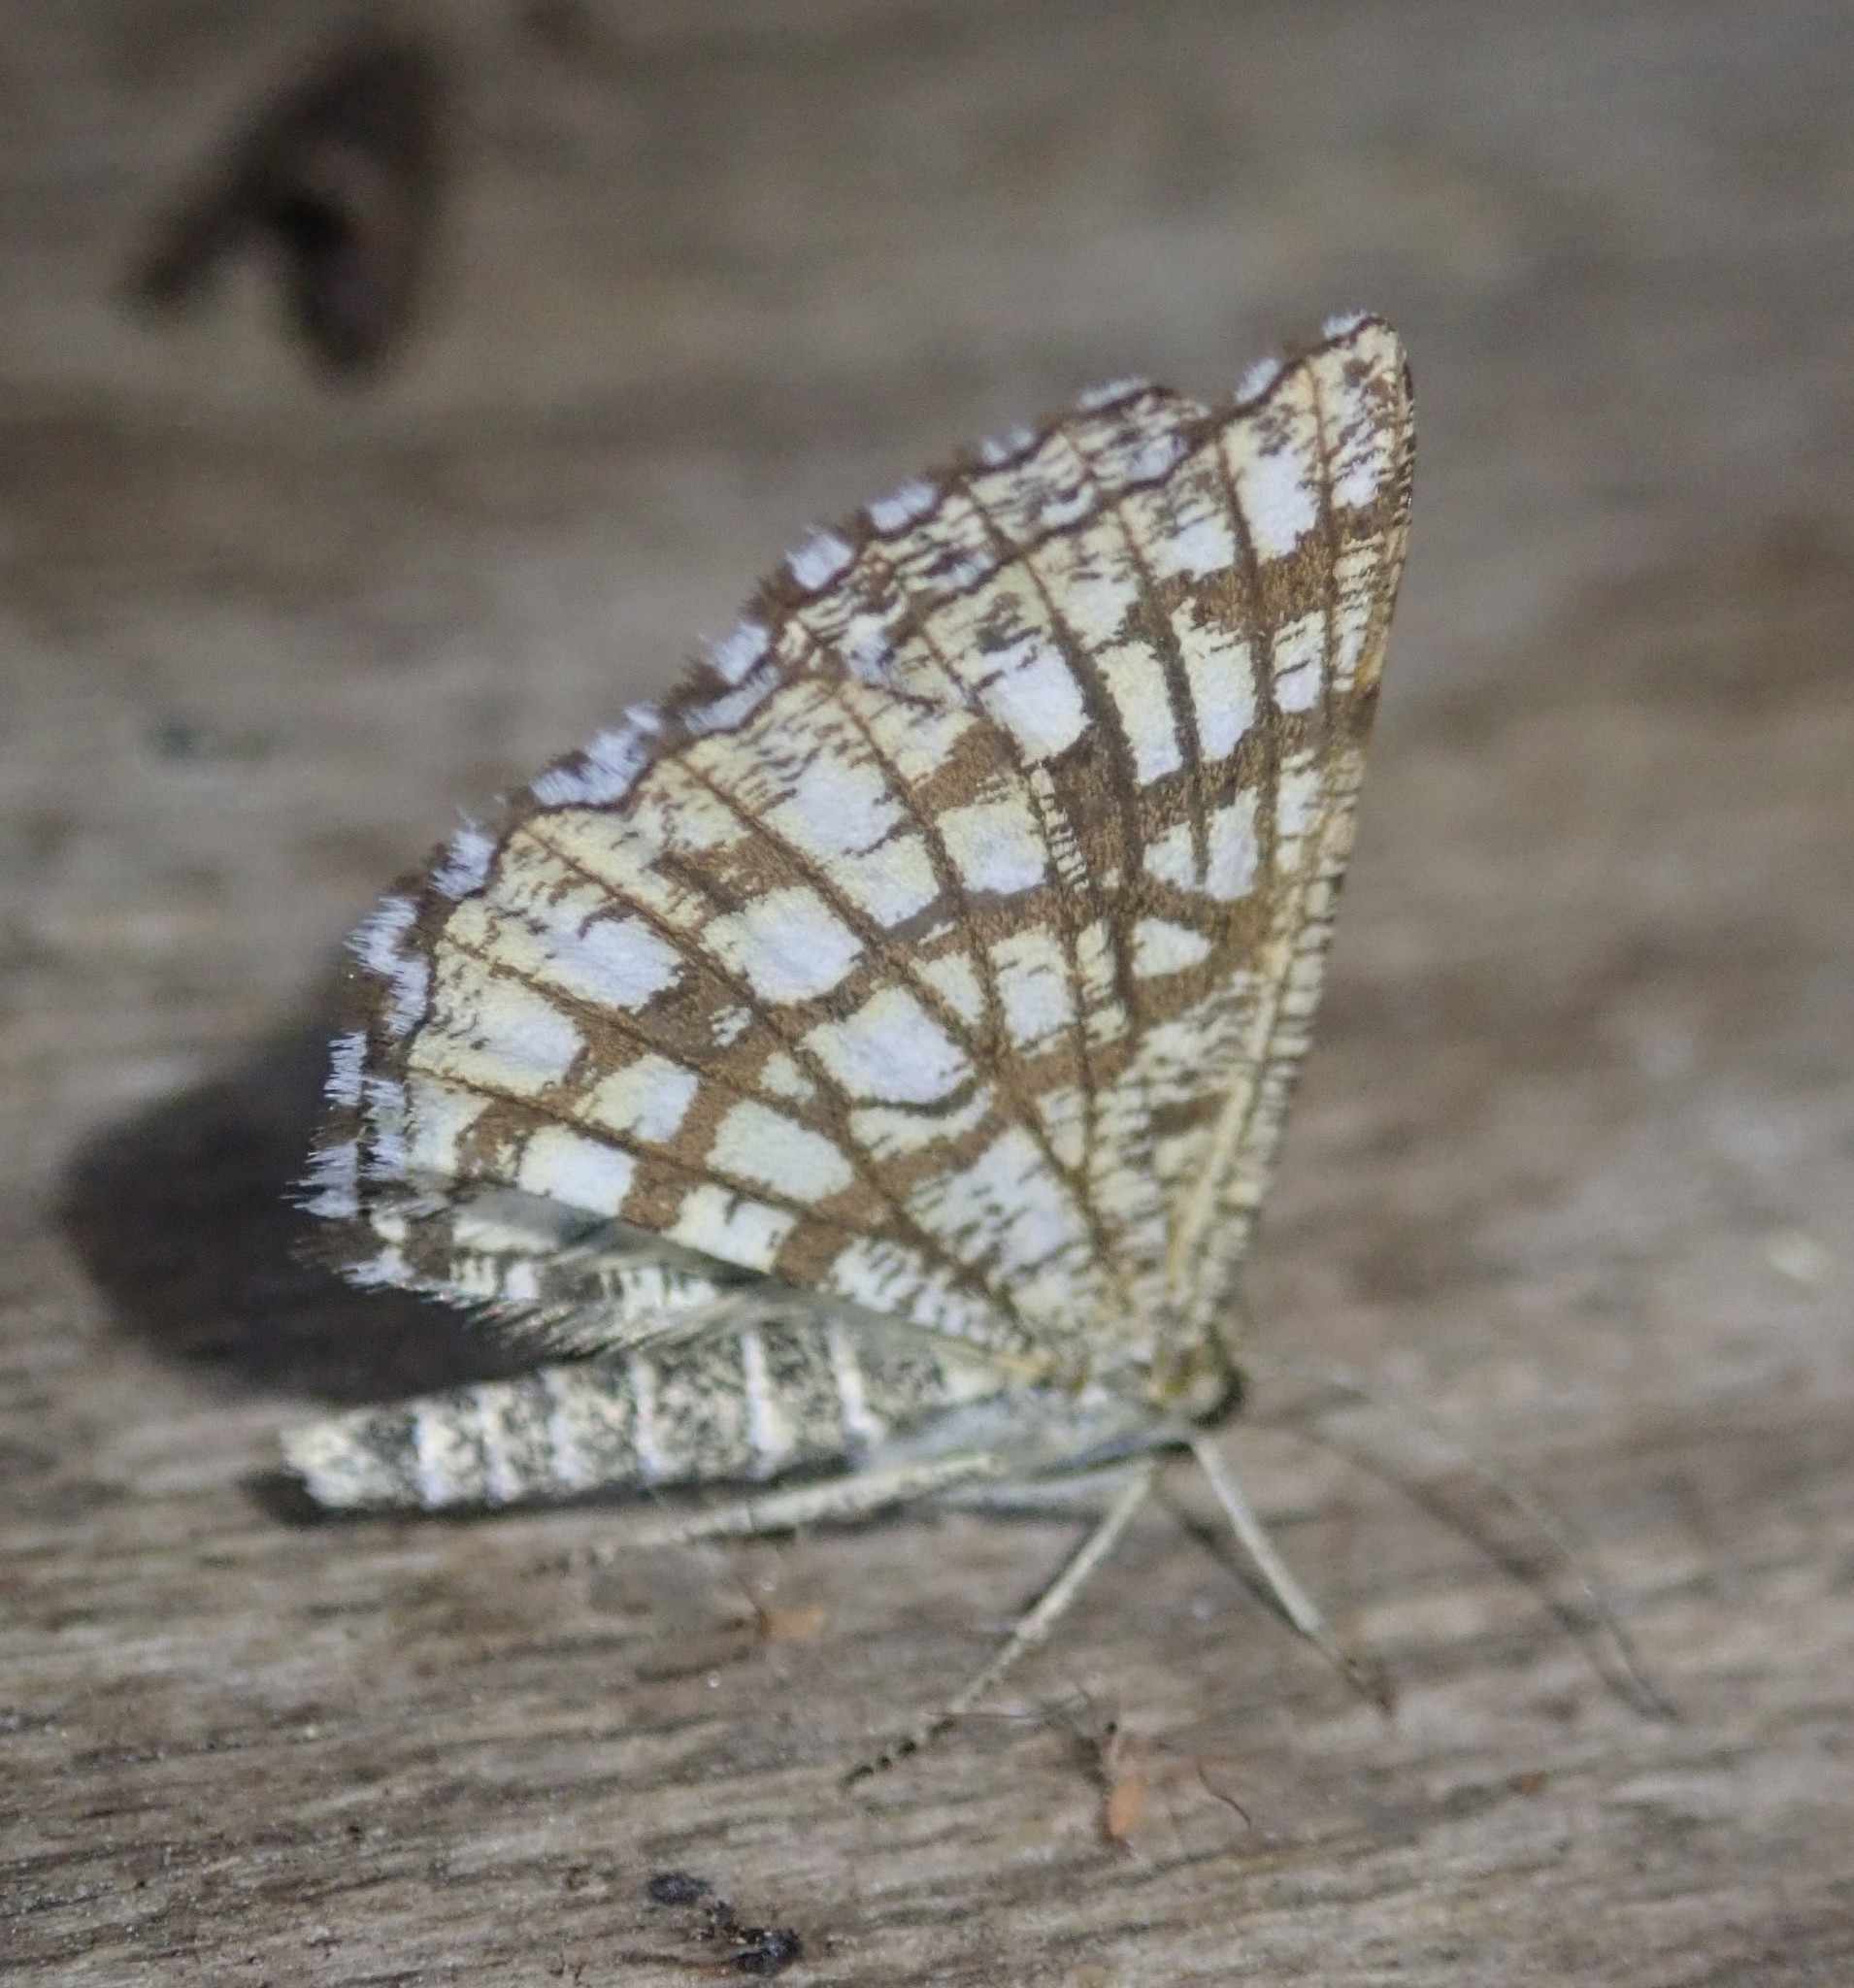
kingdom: Animalia
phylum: Arthropoda
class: Insecta
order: Lepidoptera
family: Geometridae
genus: Chiasmia
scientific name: Chiasmia clathrata
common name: Latticed heath
